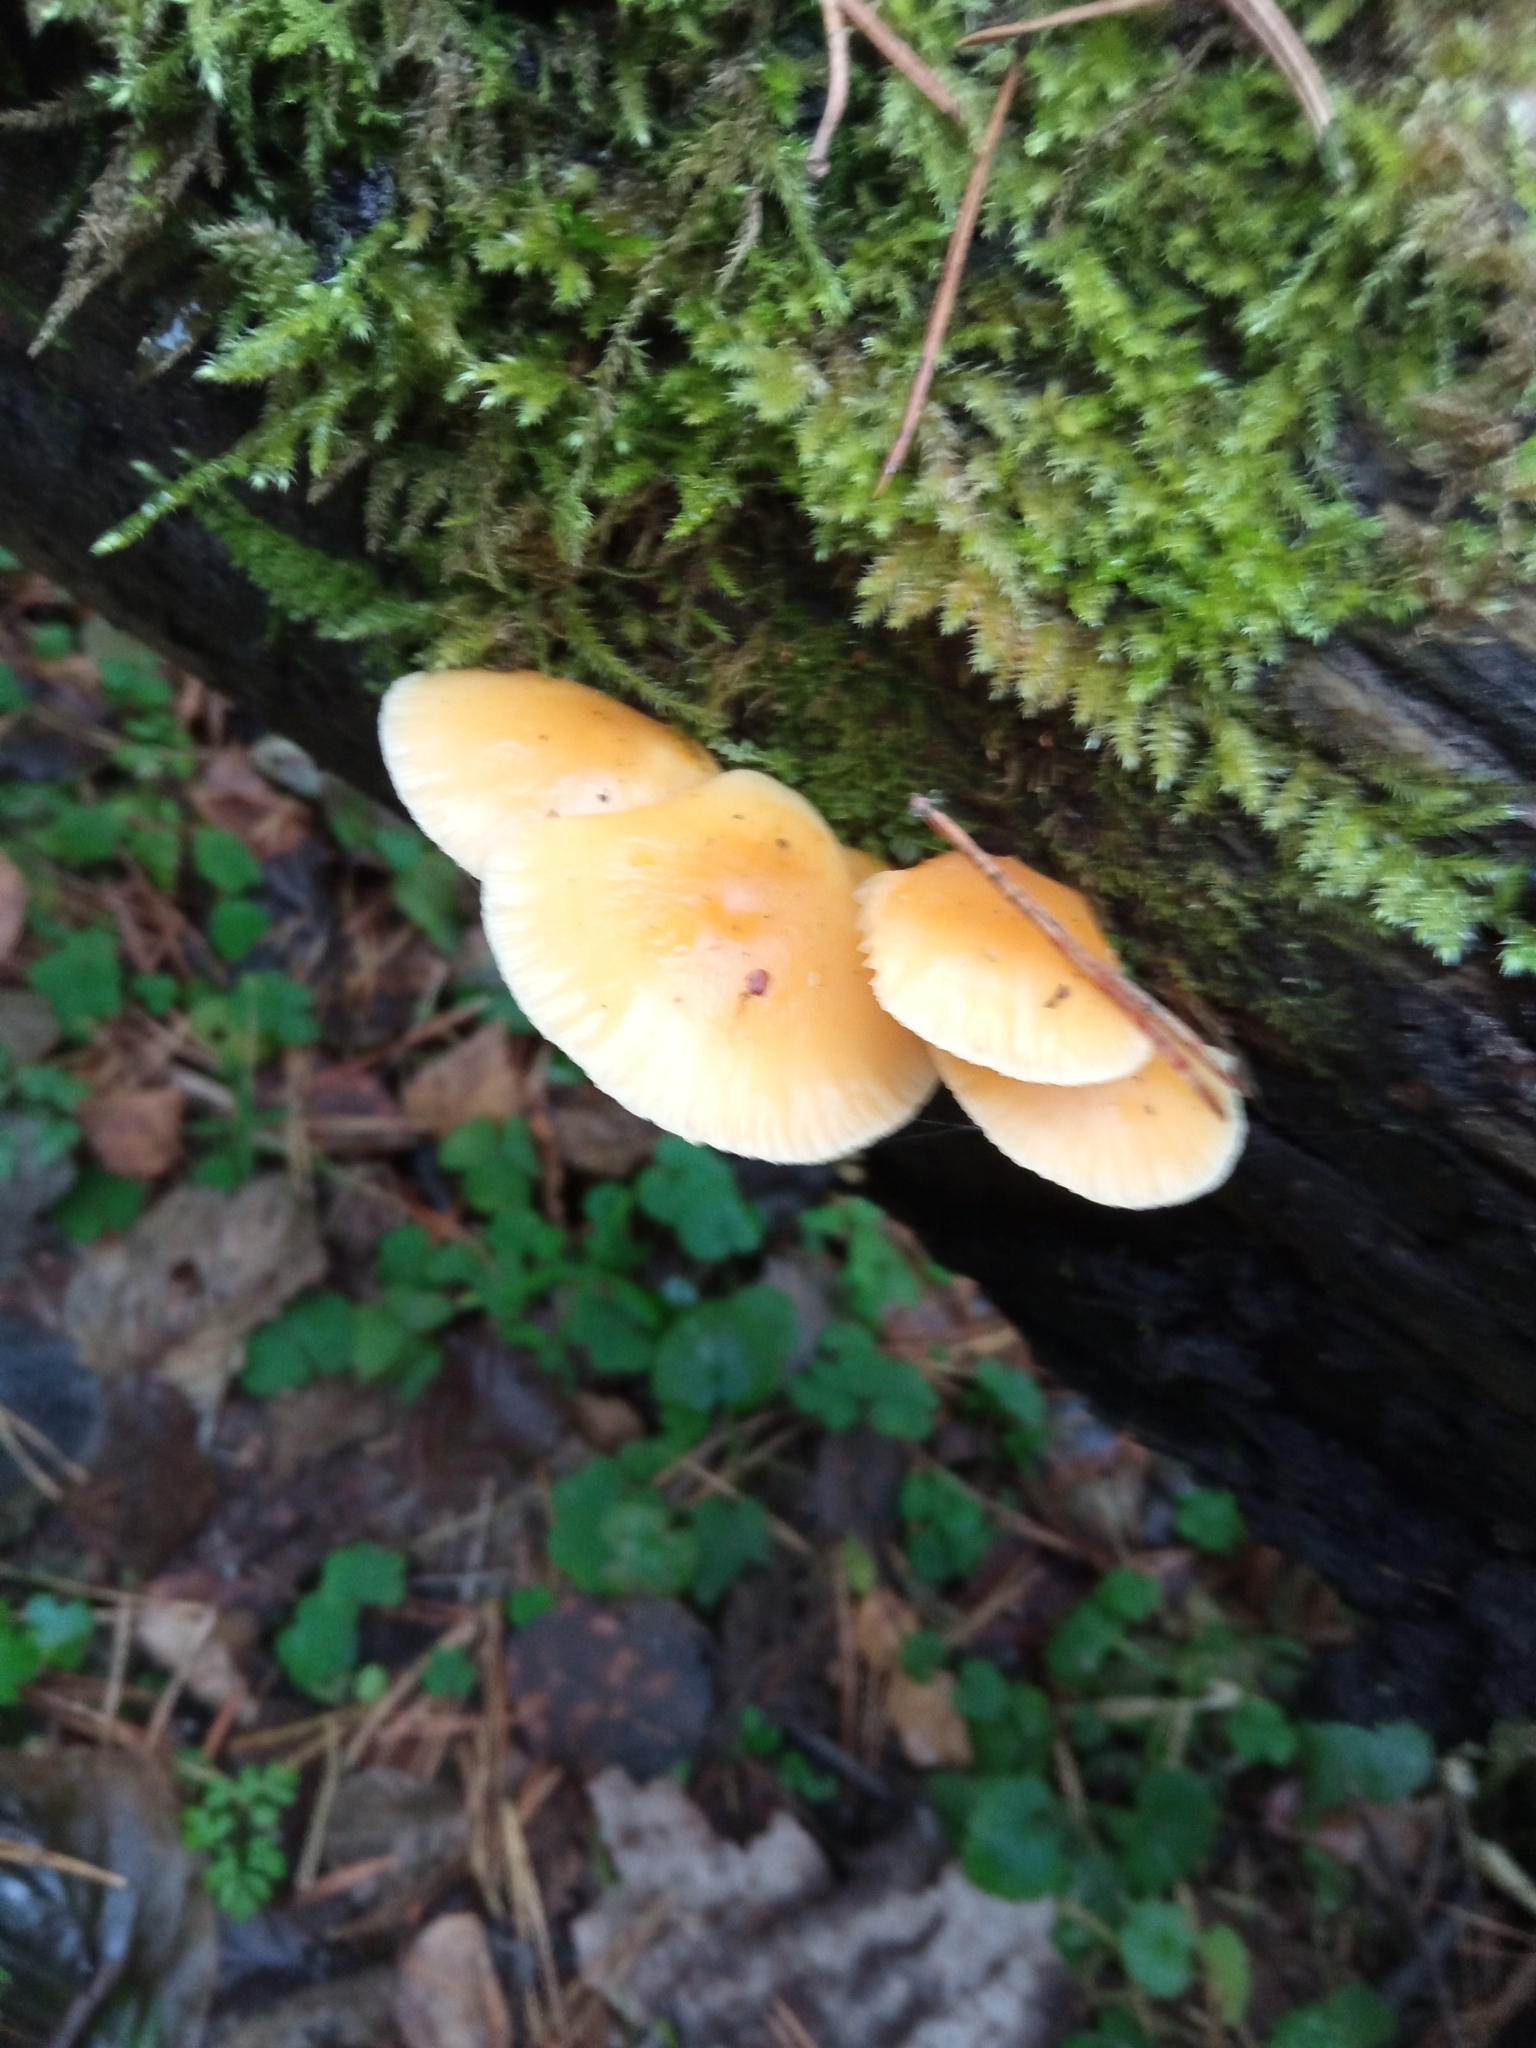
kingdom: Fungi
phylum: Basidiomycota
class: Agaricomycetes
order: Agaricales
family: Physalacriaceae
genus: Flammulina
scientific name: Flammulina
